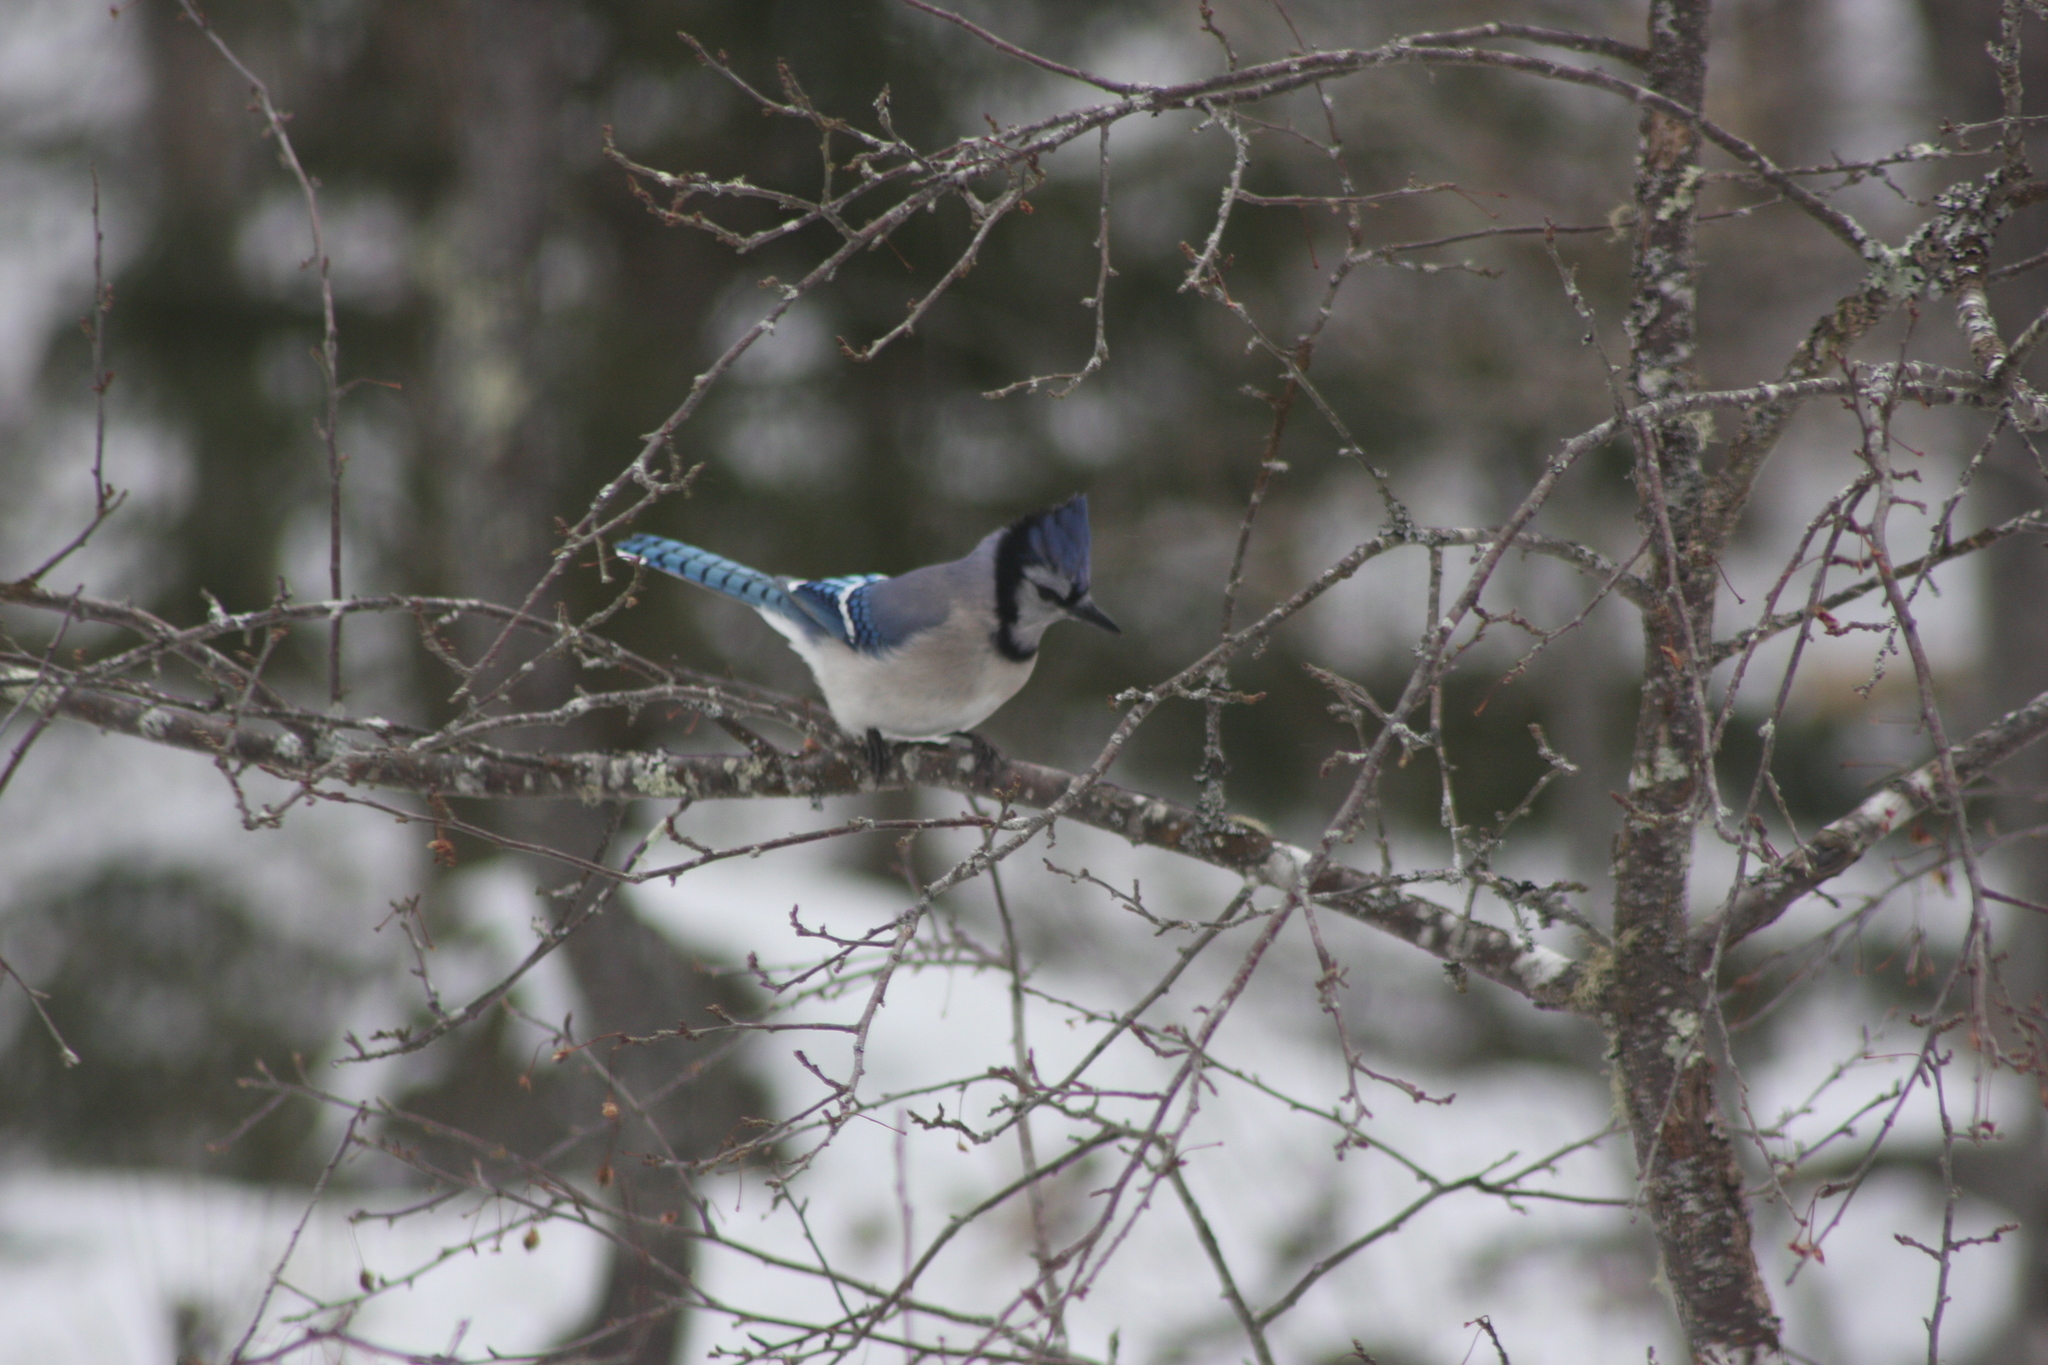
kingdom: Animalia
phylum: Chordata
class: Aves
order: Passeriformes
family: Corvidae
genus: Cyanocitta
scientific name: Cyanocitta cristata
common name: Blue jay
